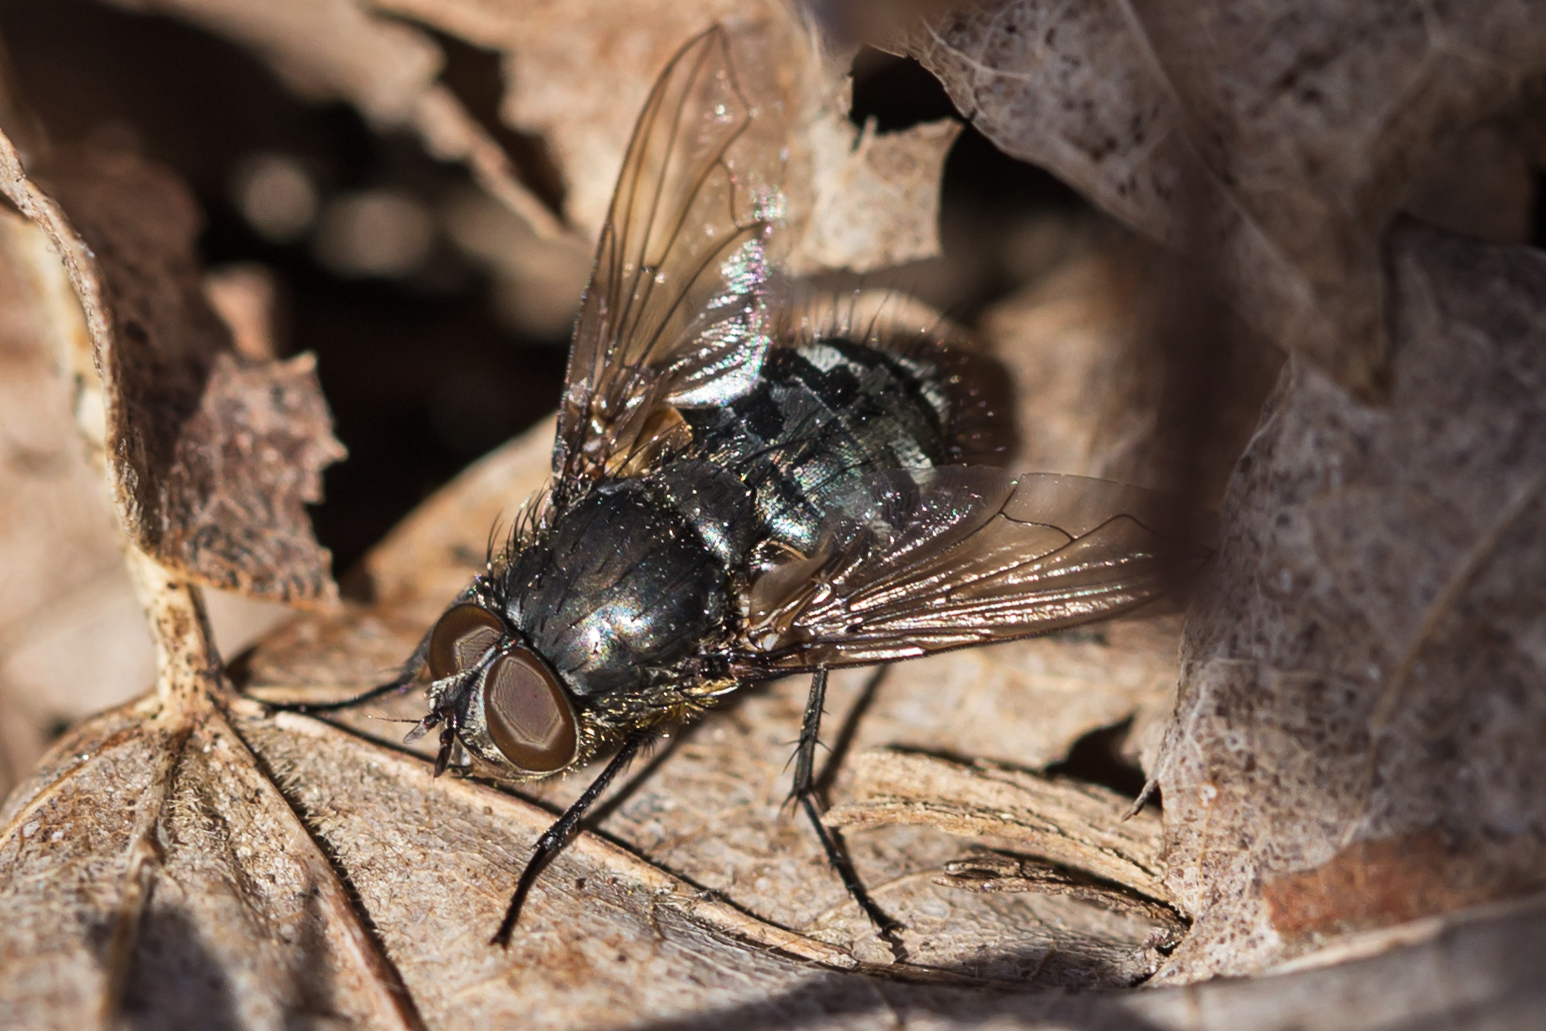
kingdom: Animalia
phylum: Arthropoda
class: Insecta
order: Diptera
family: Polleniidae
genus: Pollenia
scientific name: Pollenia
